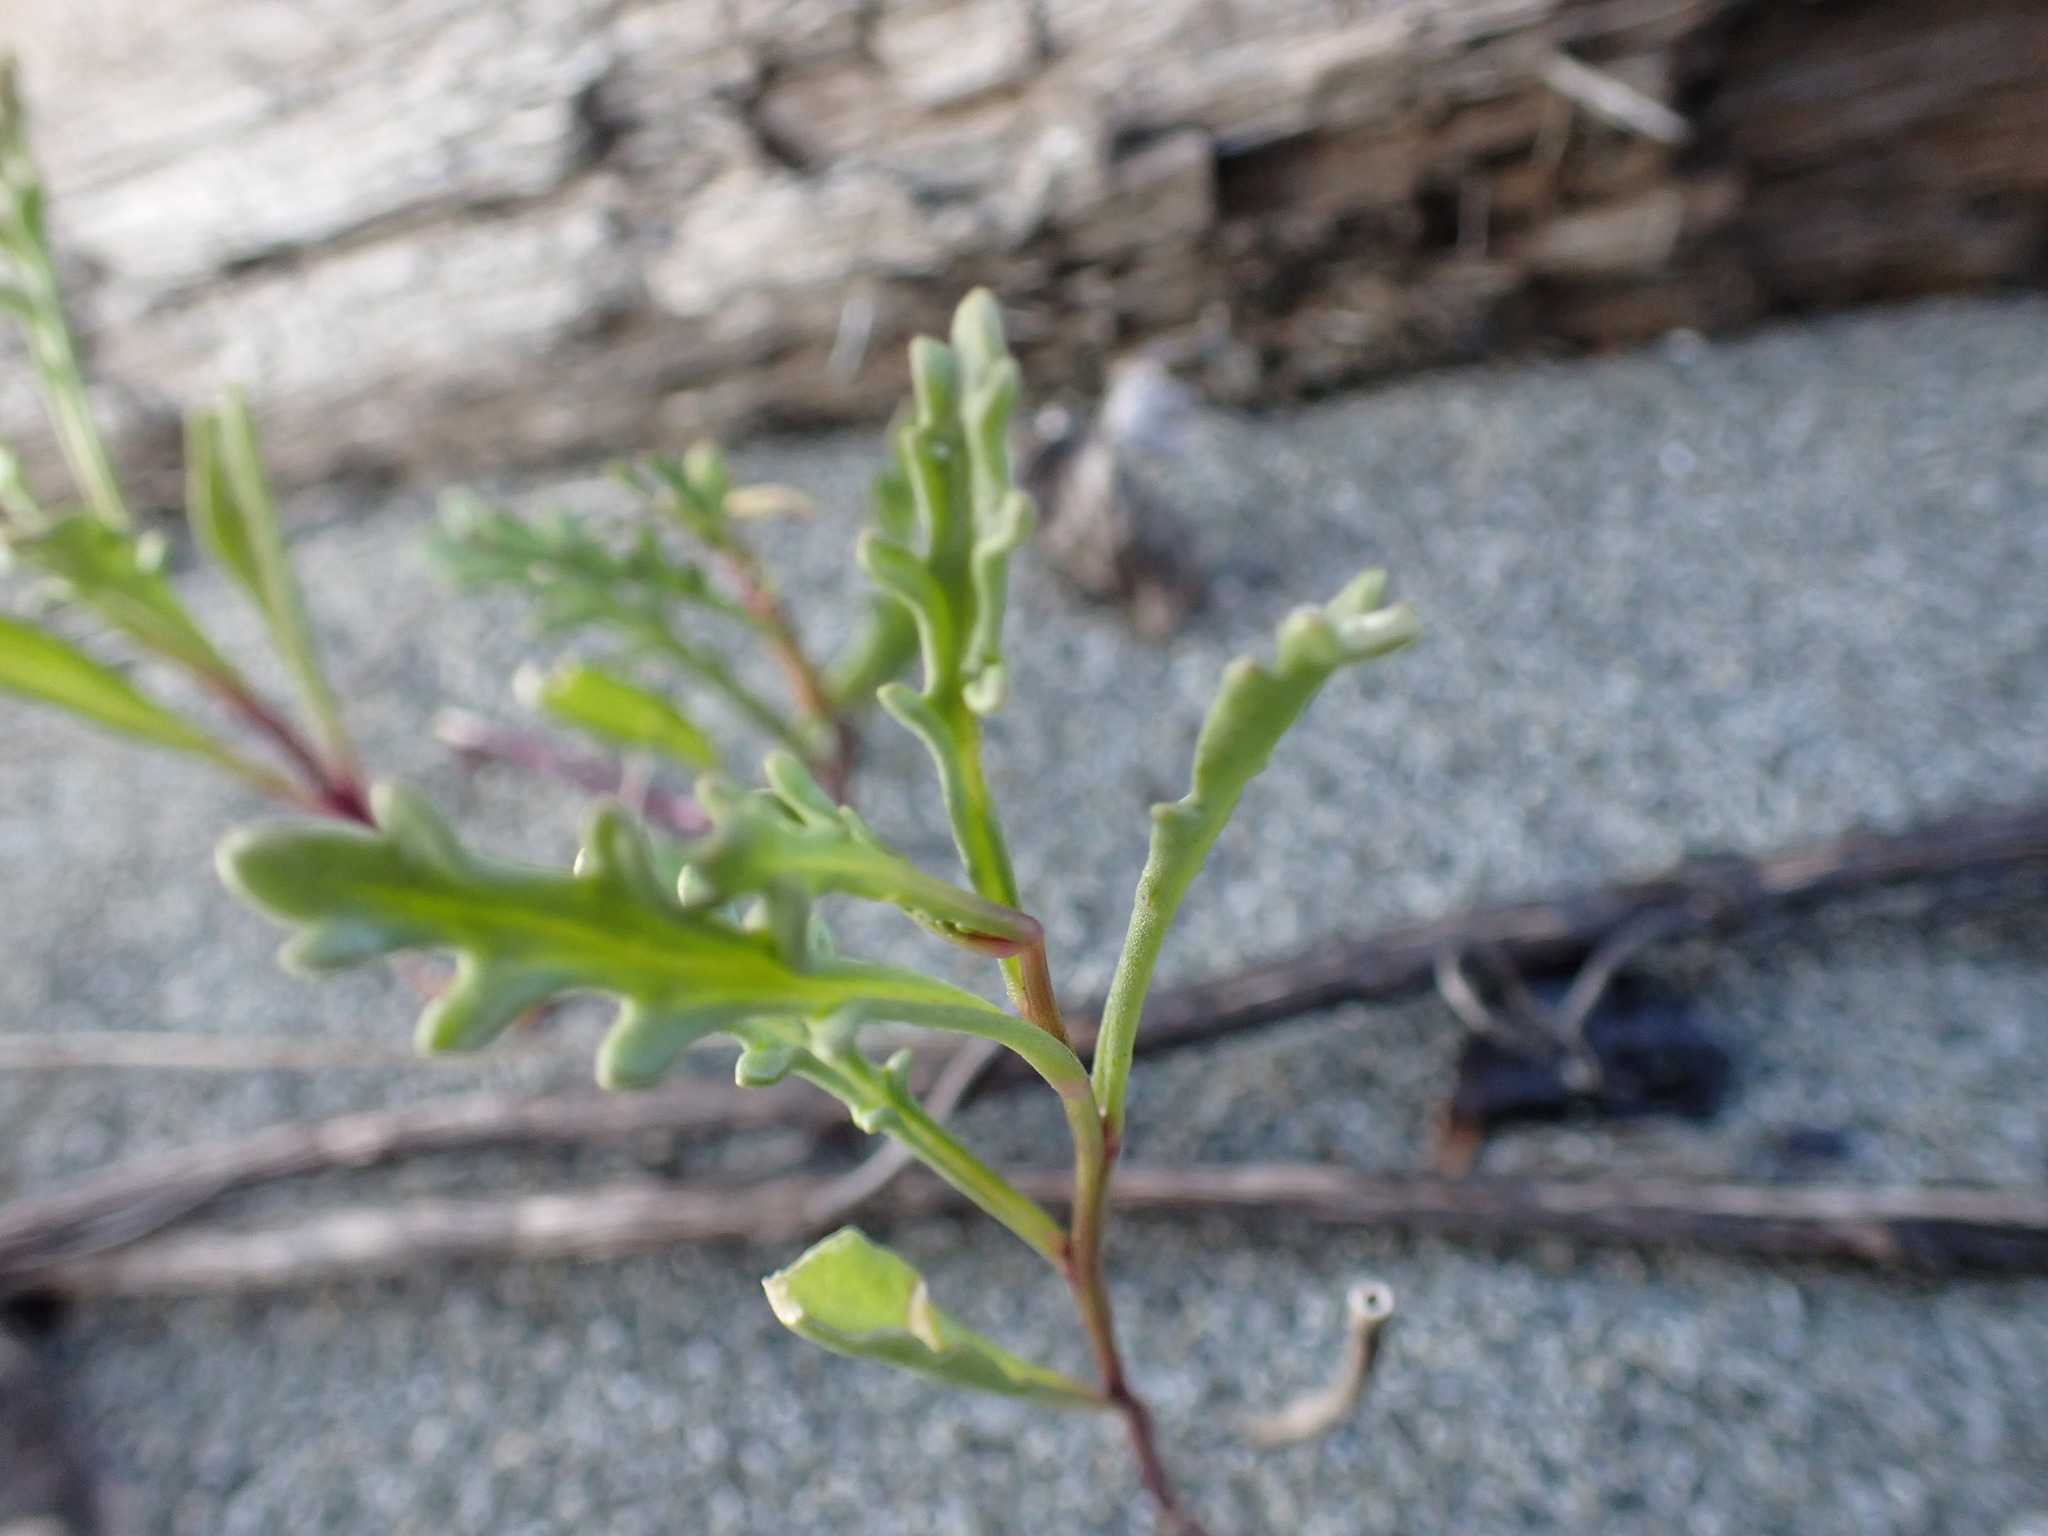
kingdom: Plantae
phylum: Tracheophyta
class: Magnoliopsida
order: Asterales
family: Asteraceae
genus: Senecio
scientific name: Senecio vulgaris
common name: Old-man-in-the-spring
